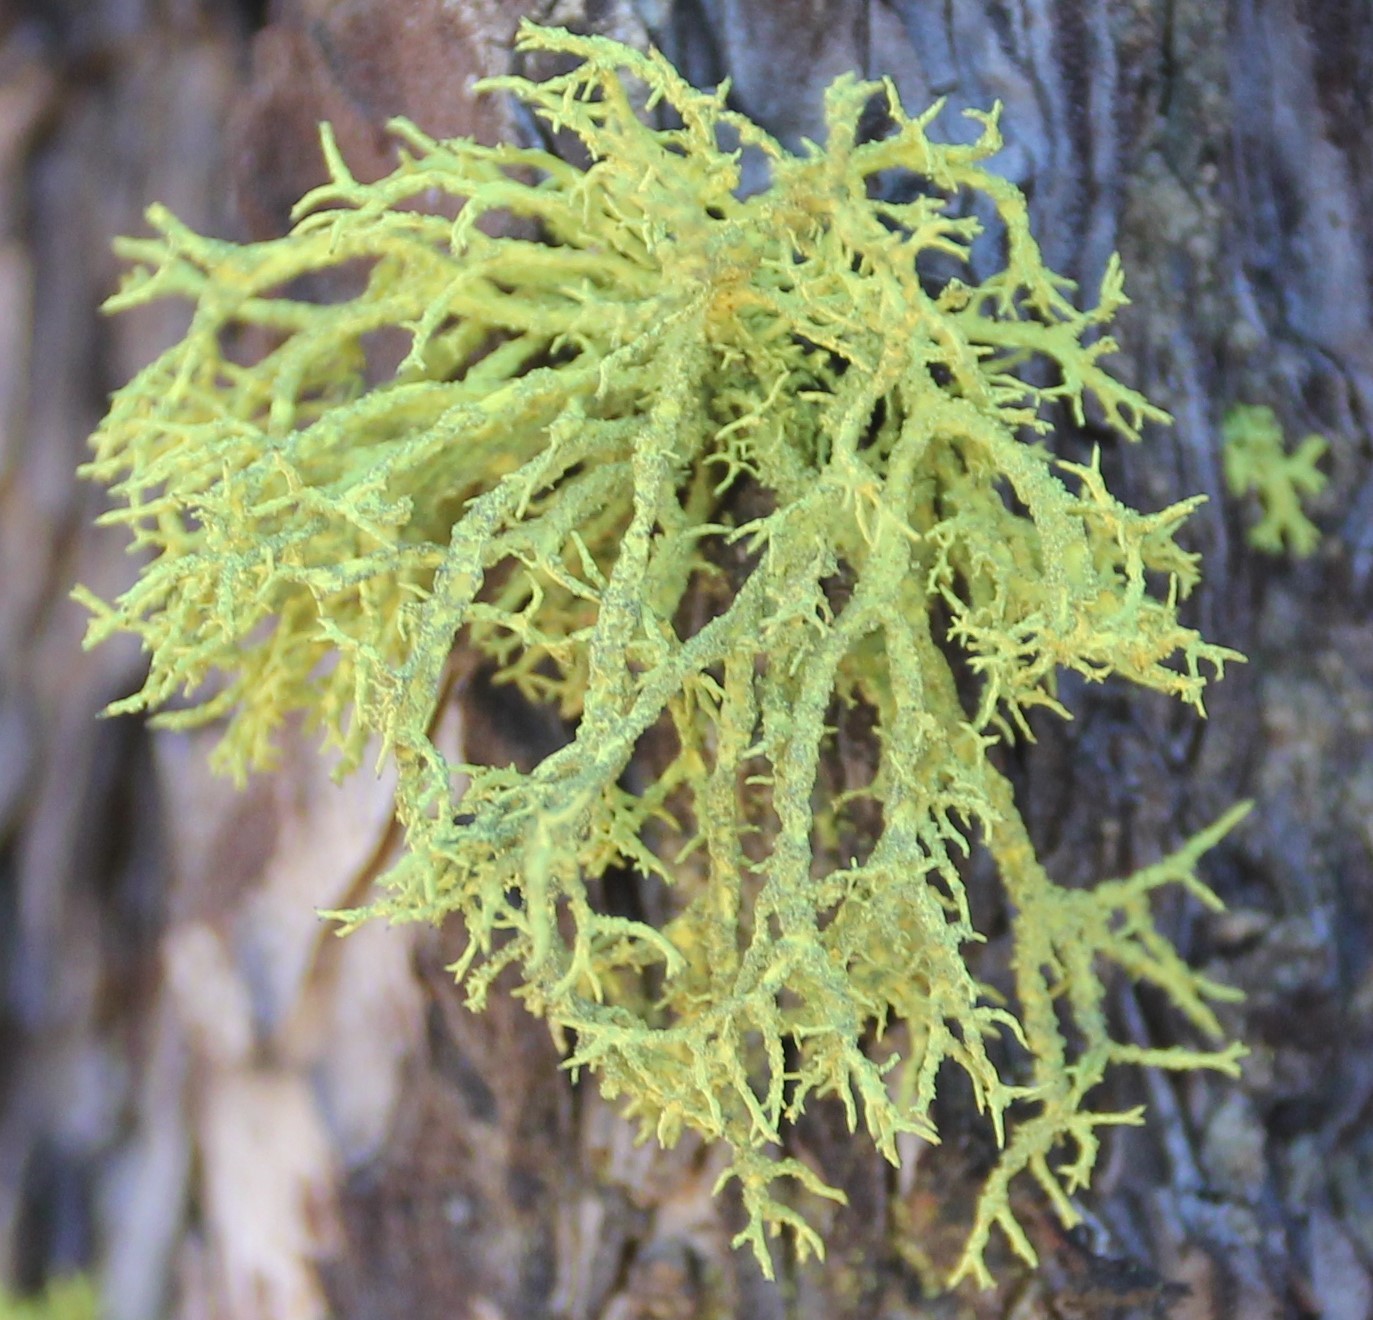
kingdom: Fungi
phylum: Ascomycota
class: Lecanoromycetes
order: Lecanorales
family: Parmeliaceae
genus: Letharia
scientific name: Letharia vulpina
